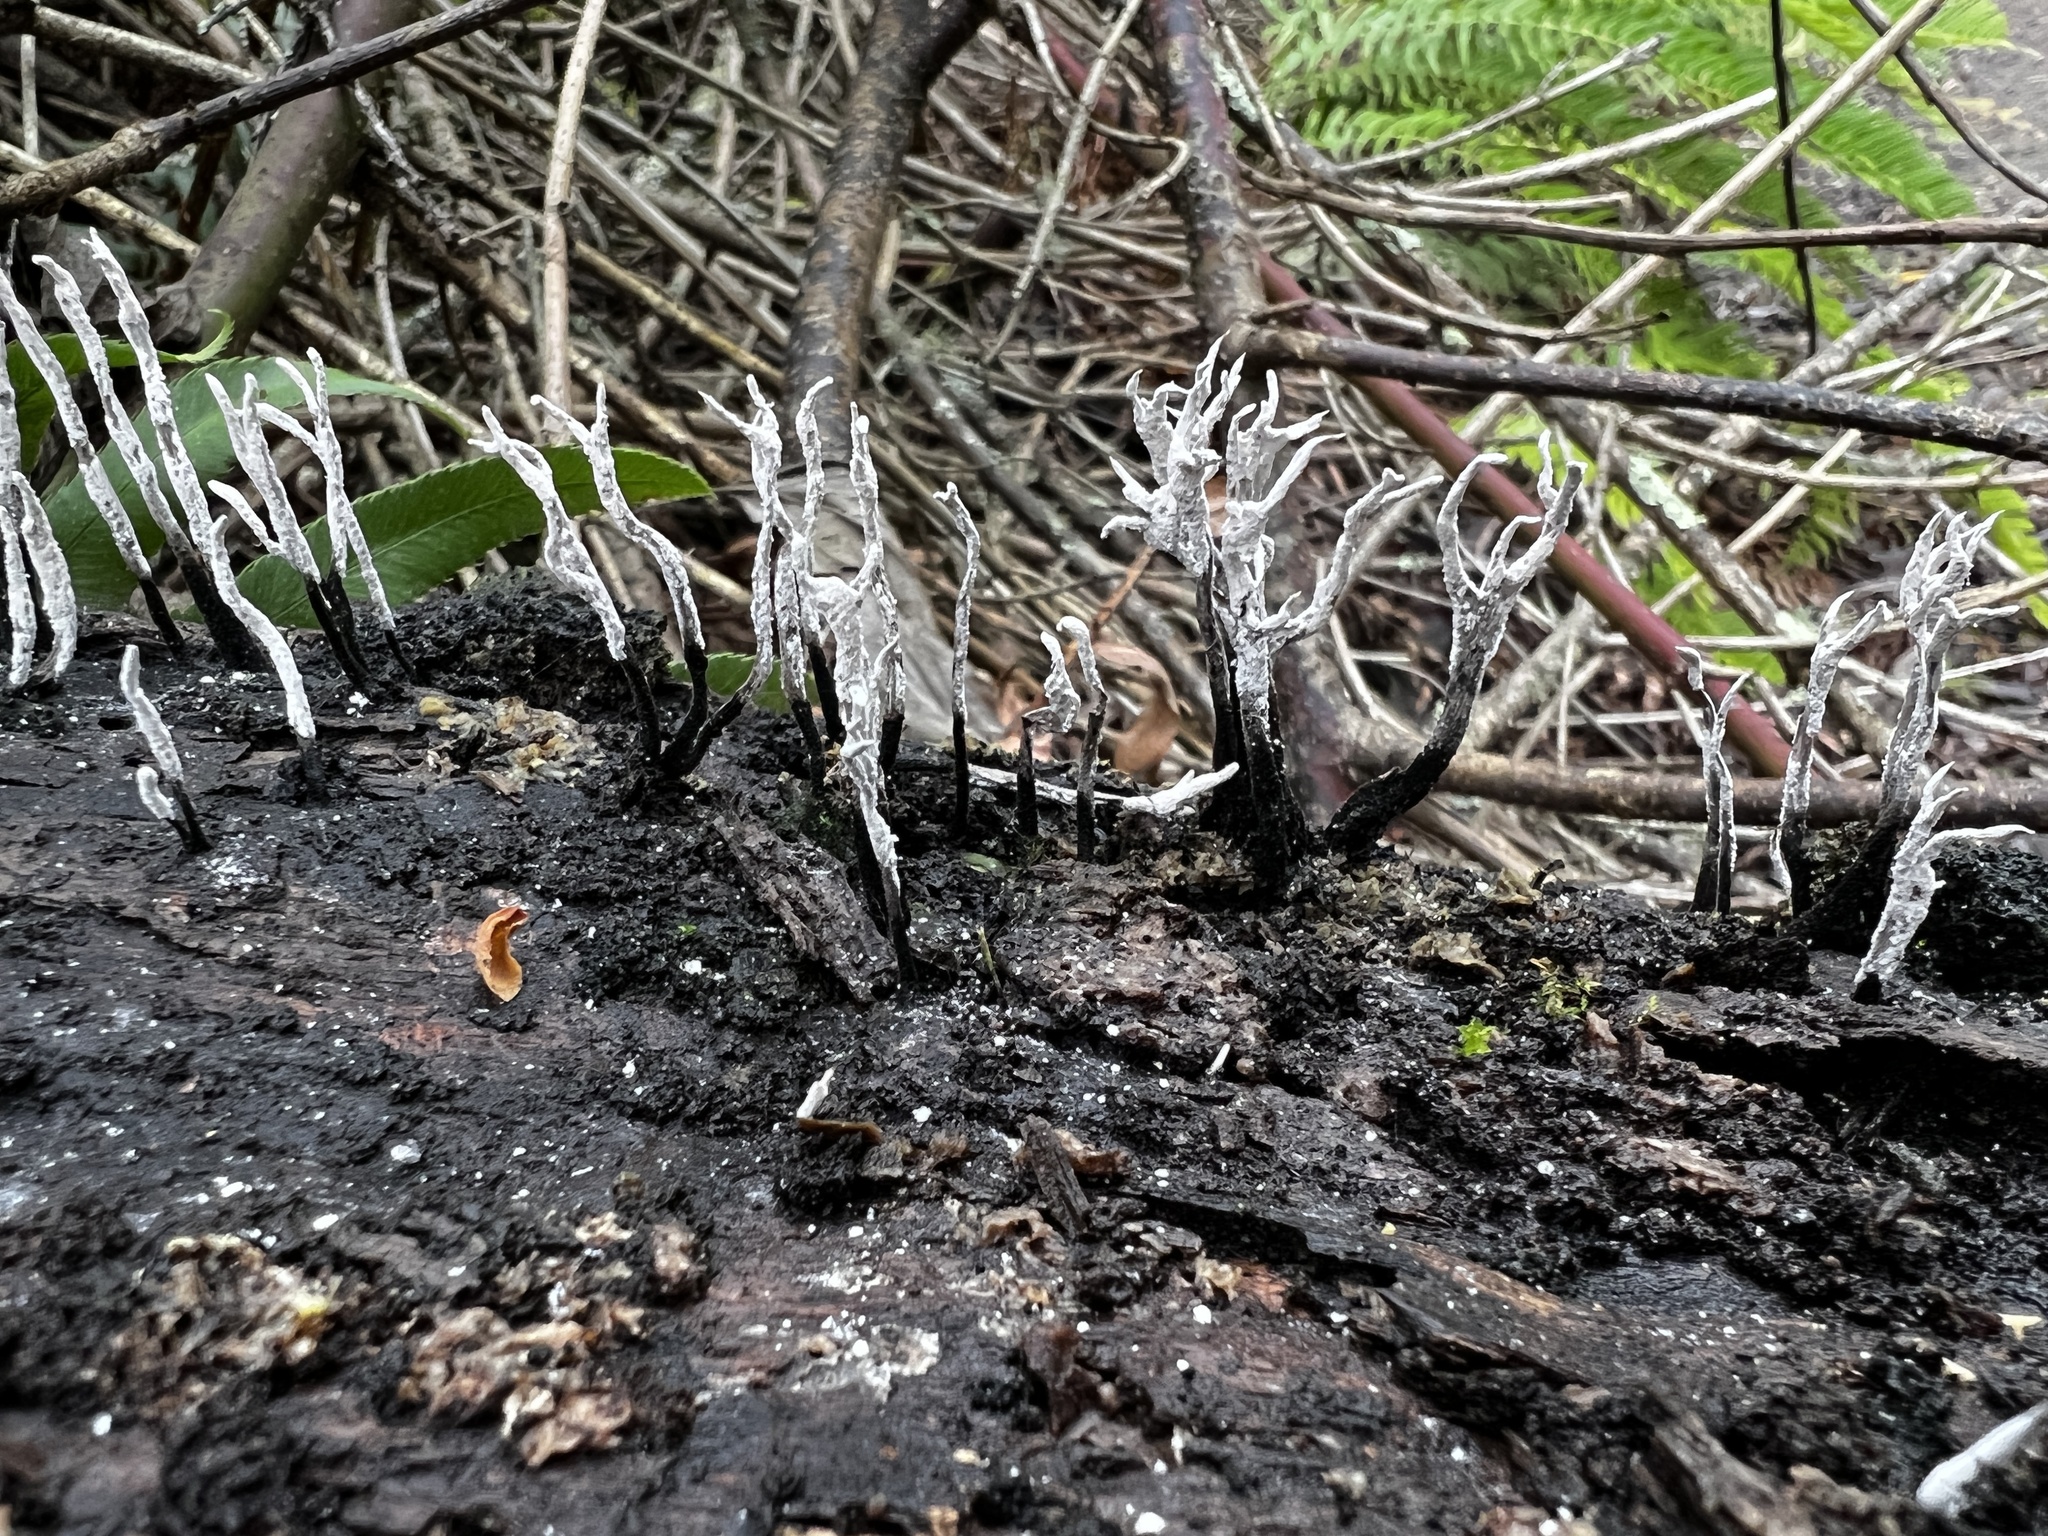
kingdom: Fungi
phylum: Ascomycota
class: Sordariomycetes
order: Xylariales
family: Xylariaceae
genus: Xylaria
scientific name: Xylaria hypoxylon
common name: Candle-snuff fungus
